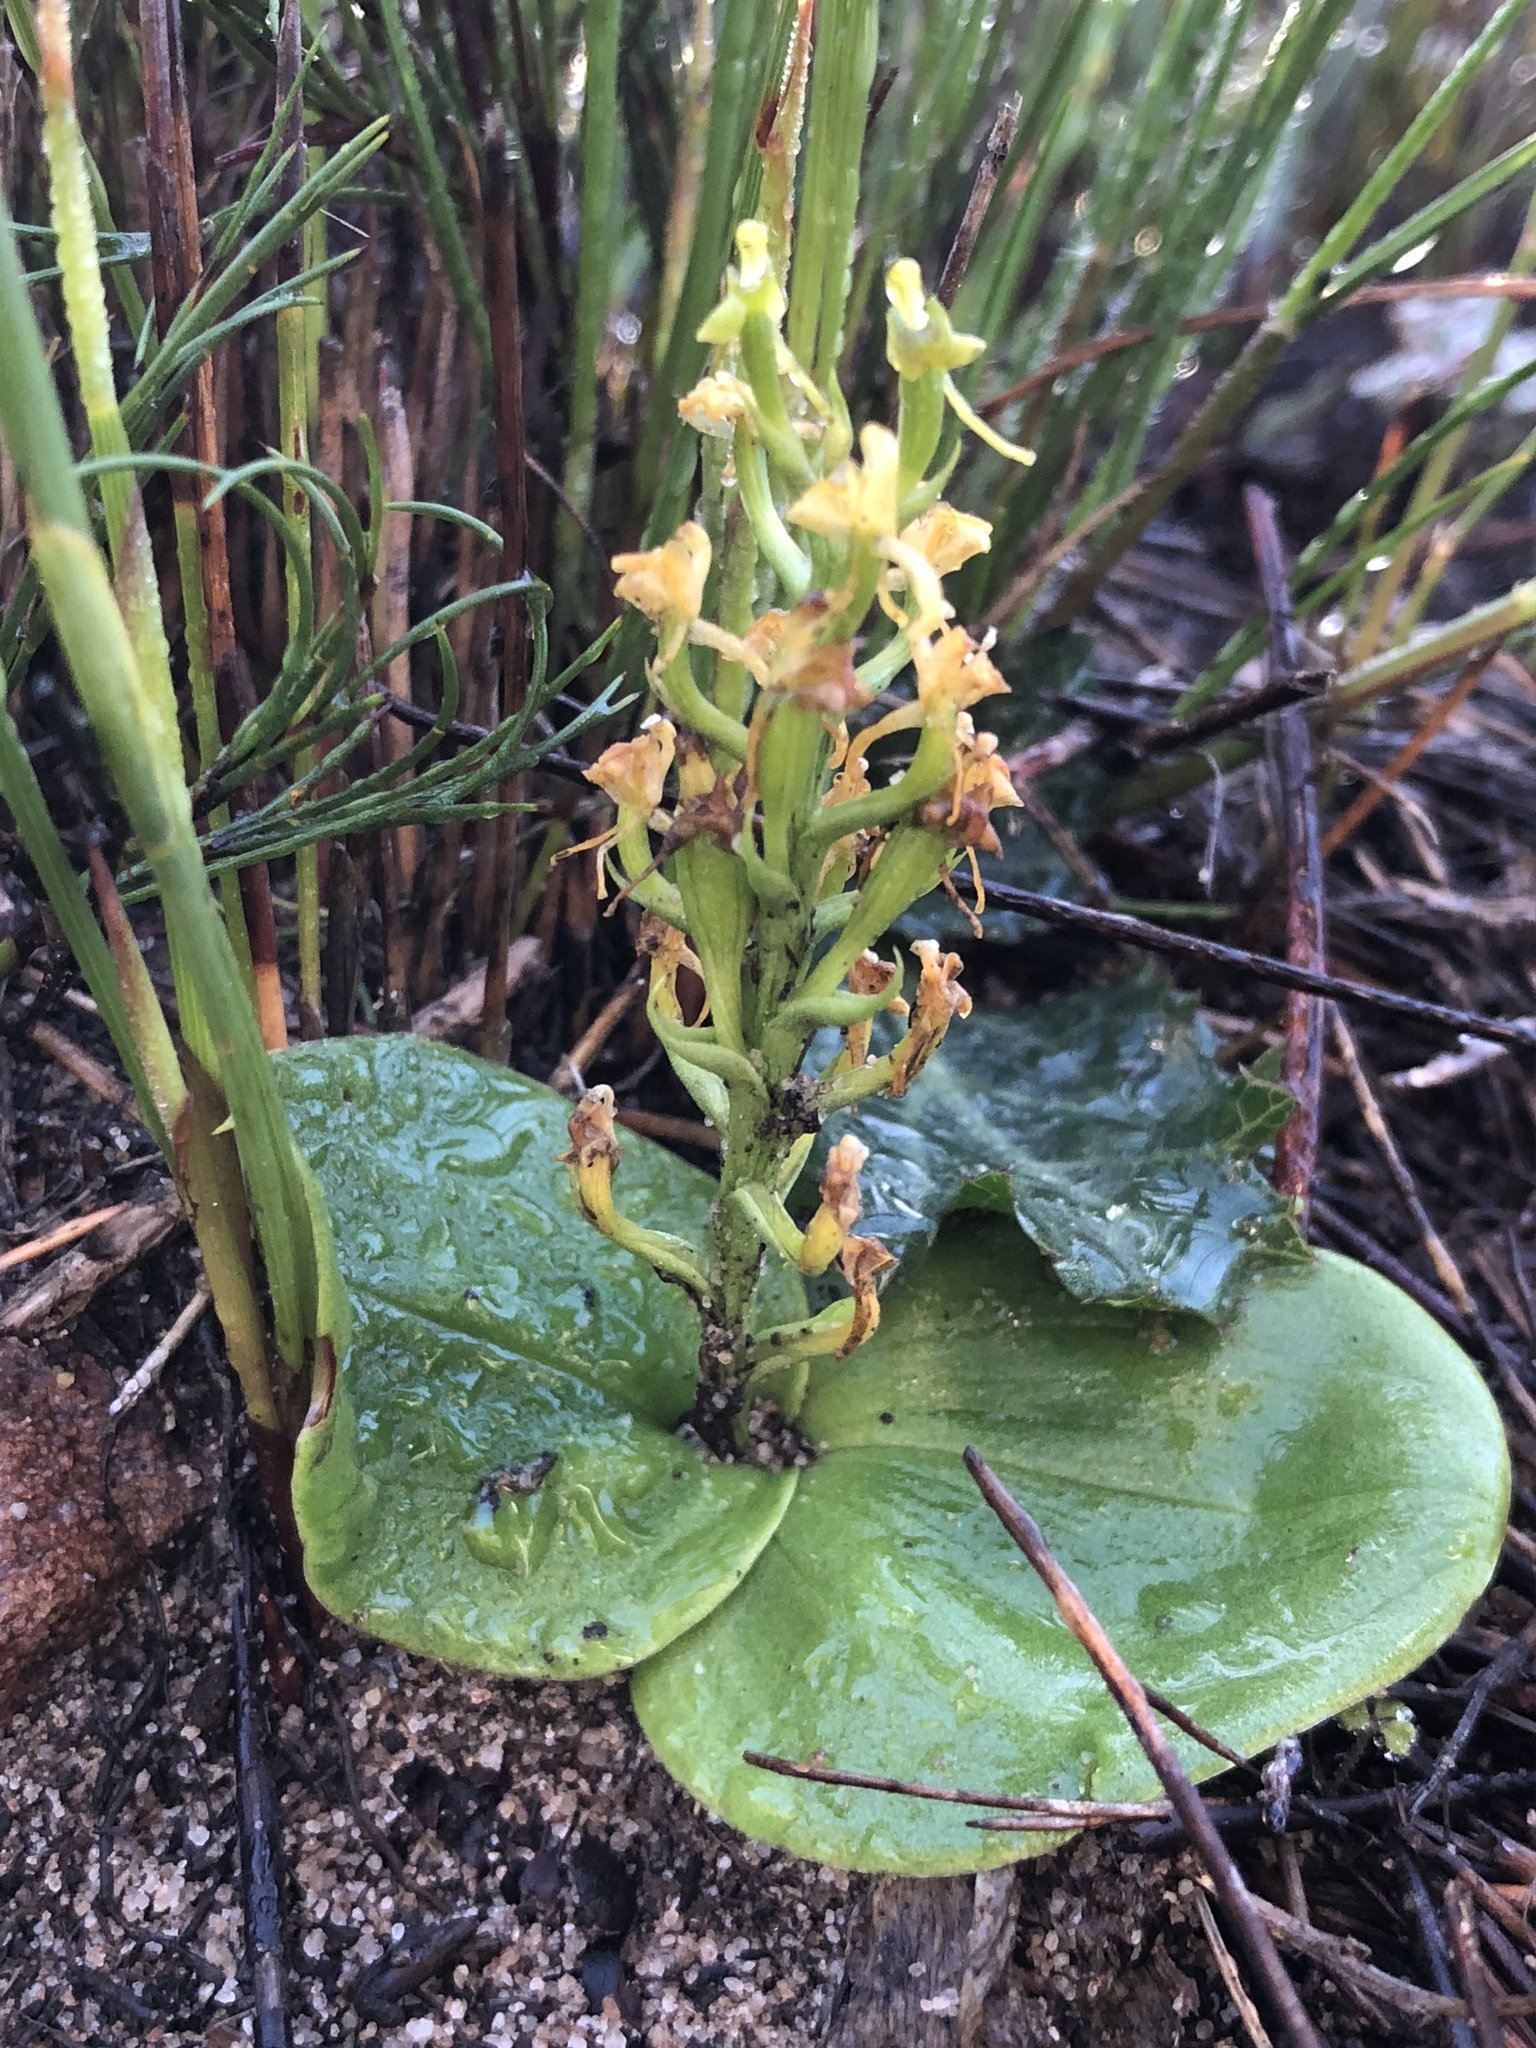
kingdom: Plantae
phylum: Tracheophyta
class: Liliopsida
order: Asparagales
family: Orchidaceae
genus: Liparis
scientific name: Liparis capensis
